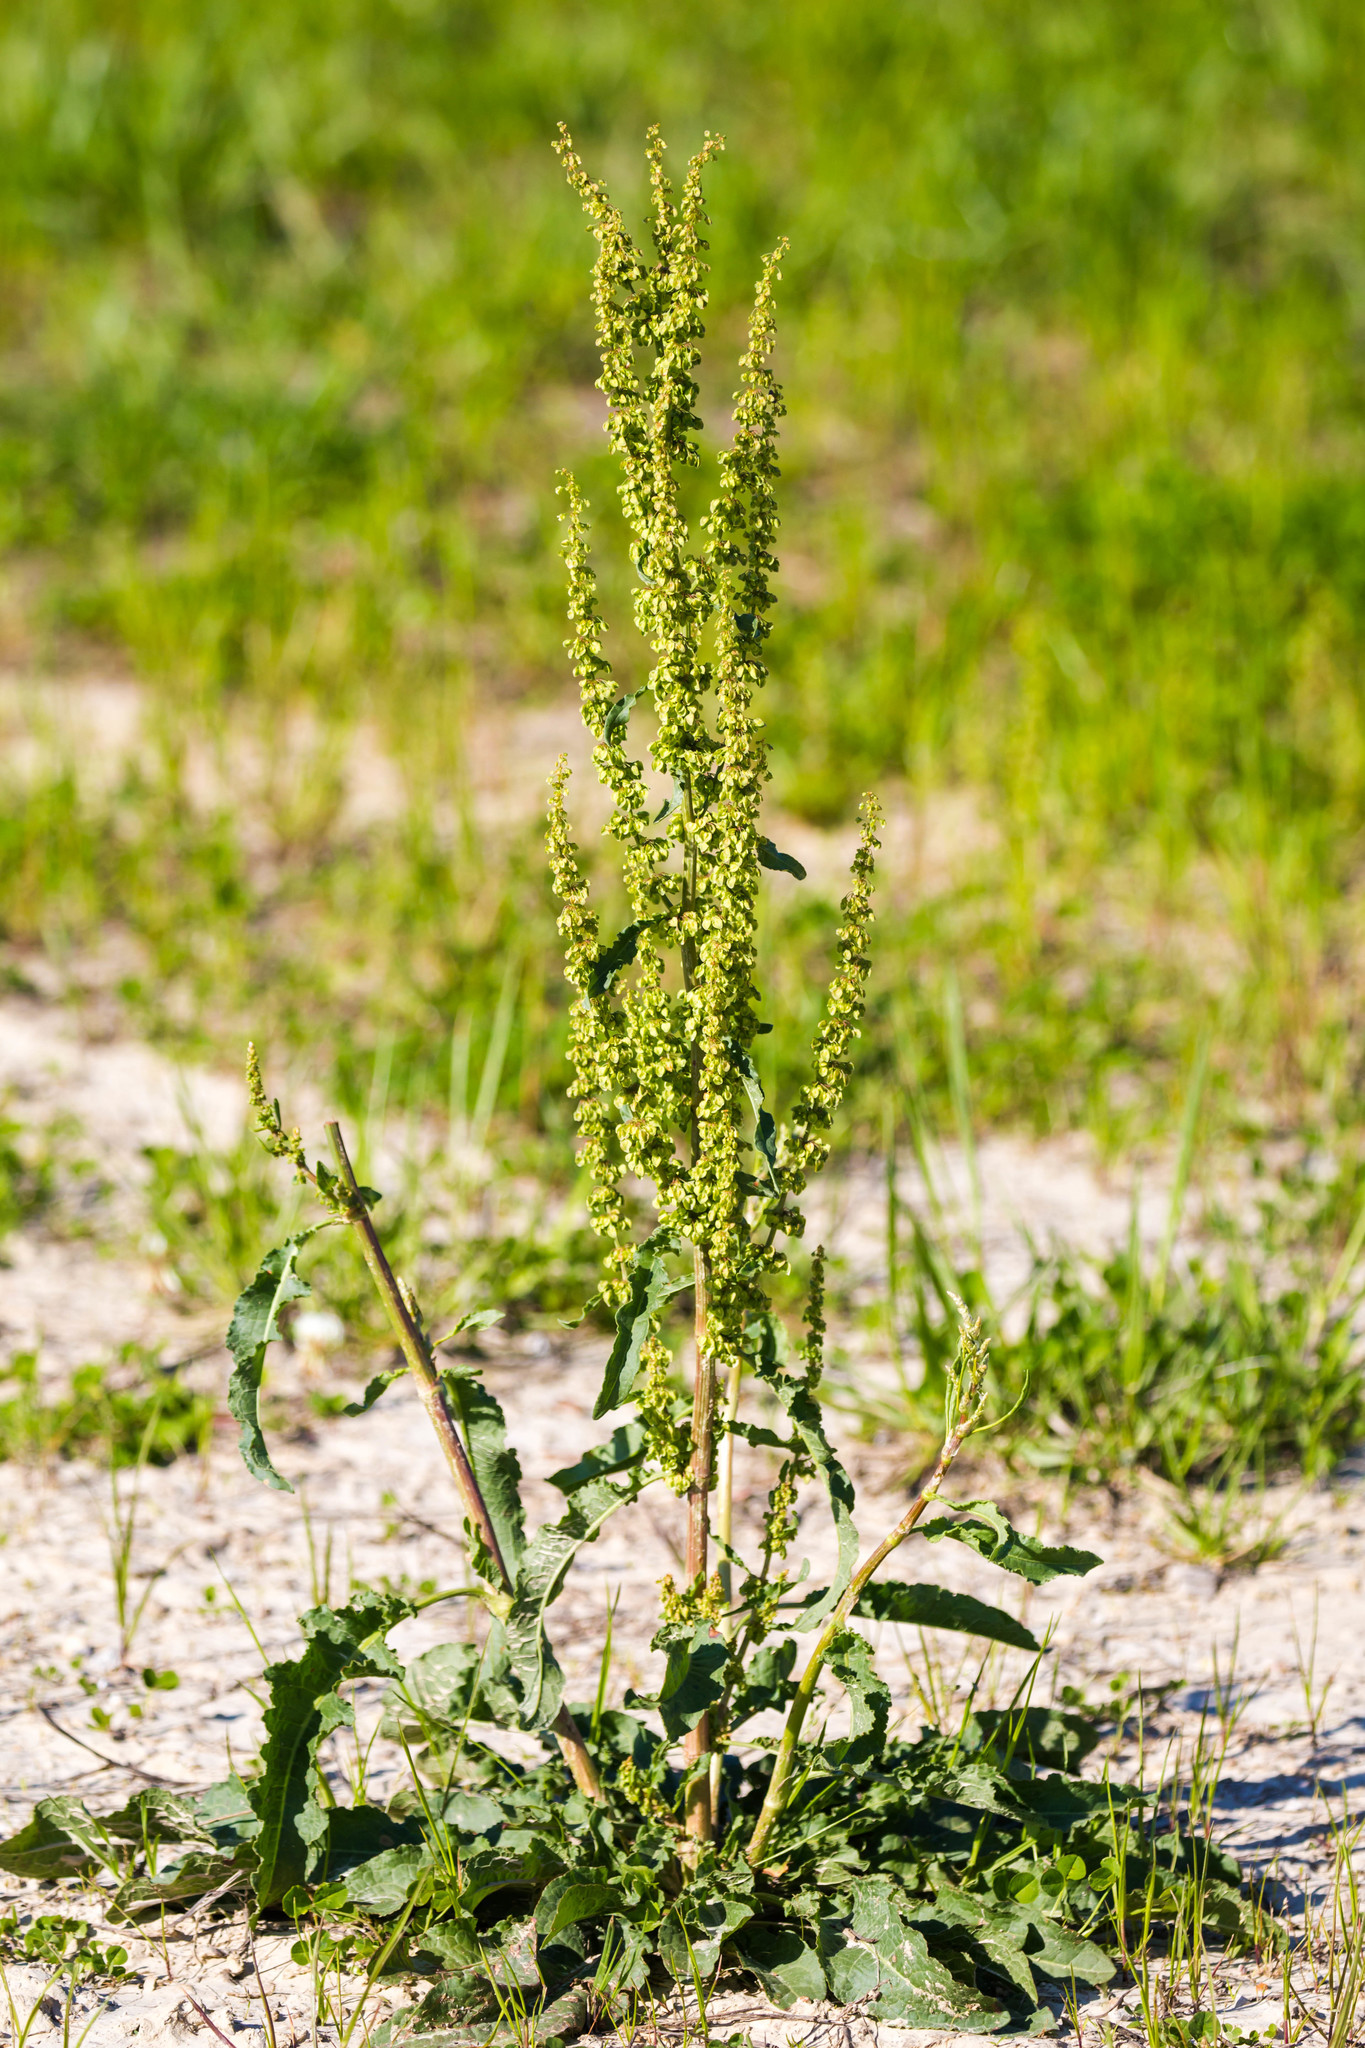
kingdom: Plantae
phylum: Tracheophyta
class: Magnoliopsida
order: Caryophyllales
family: Polygonaceae
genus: Rumex
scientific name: Rumex crispus
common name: Curled dock
